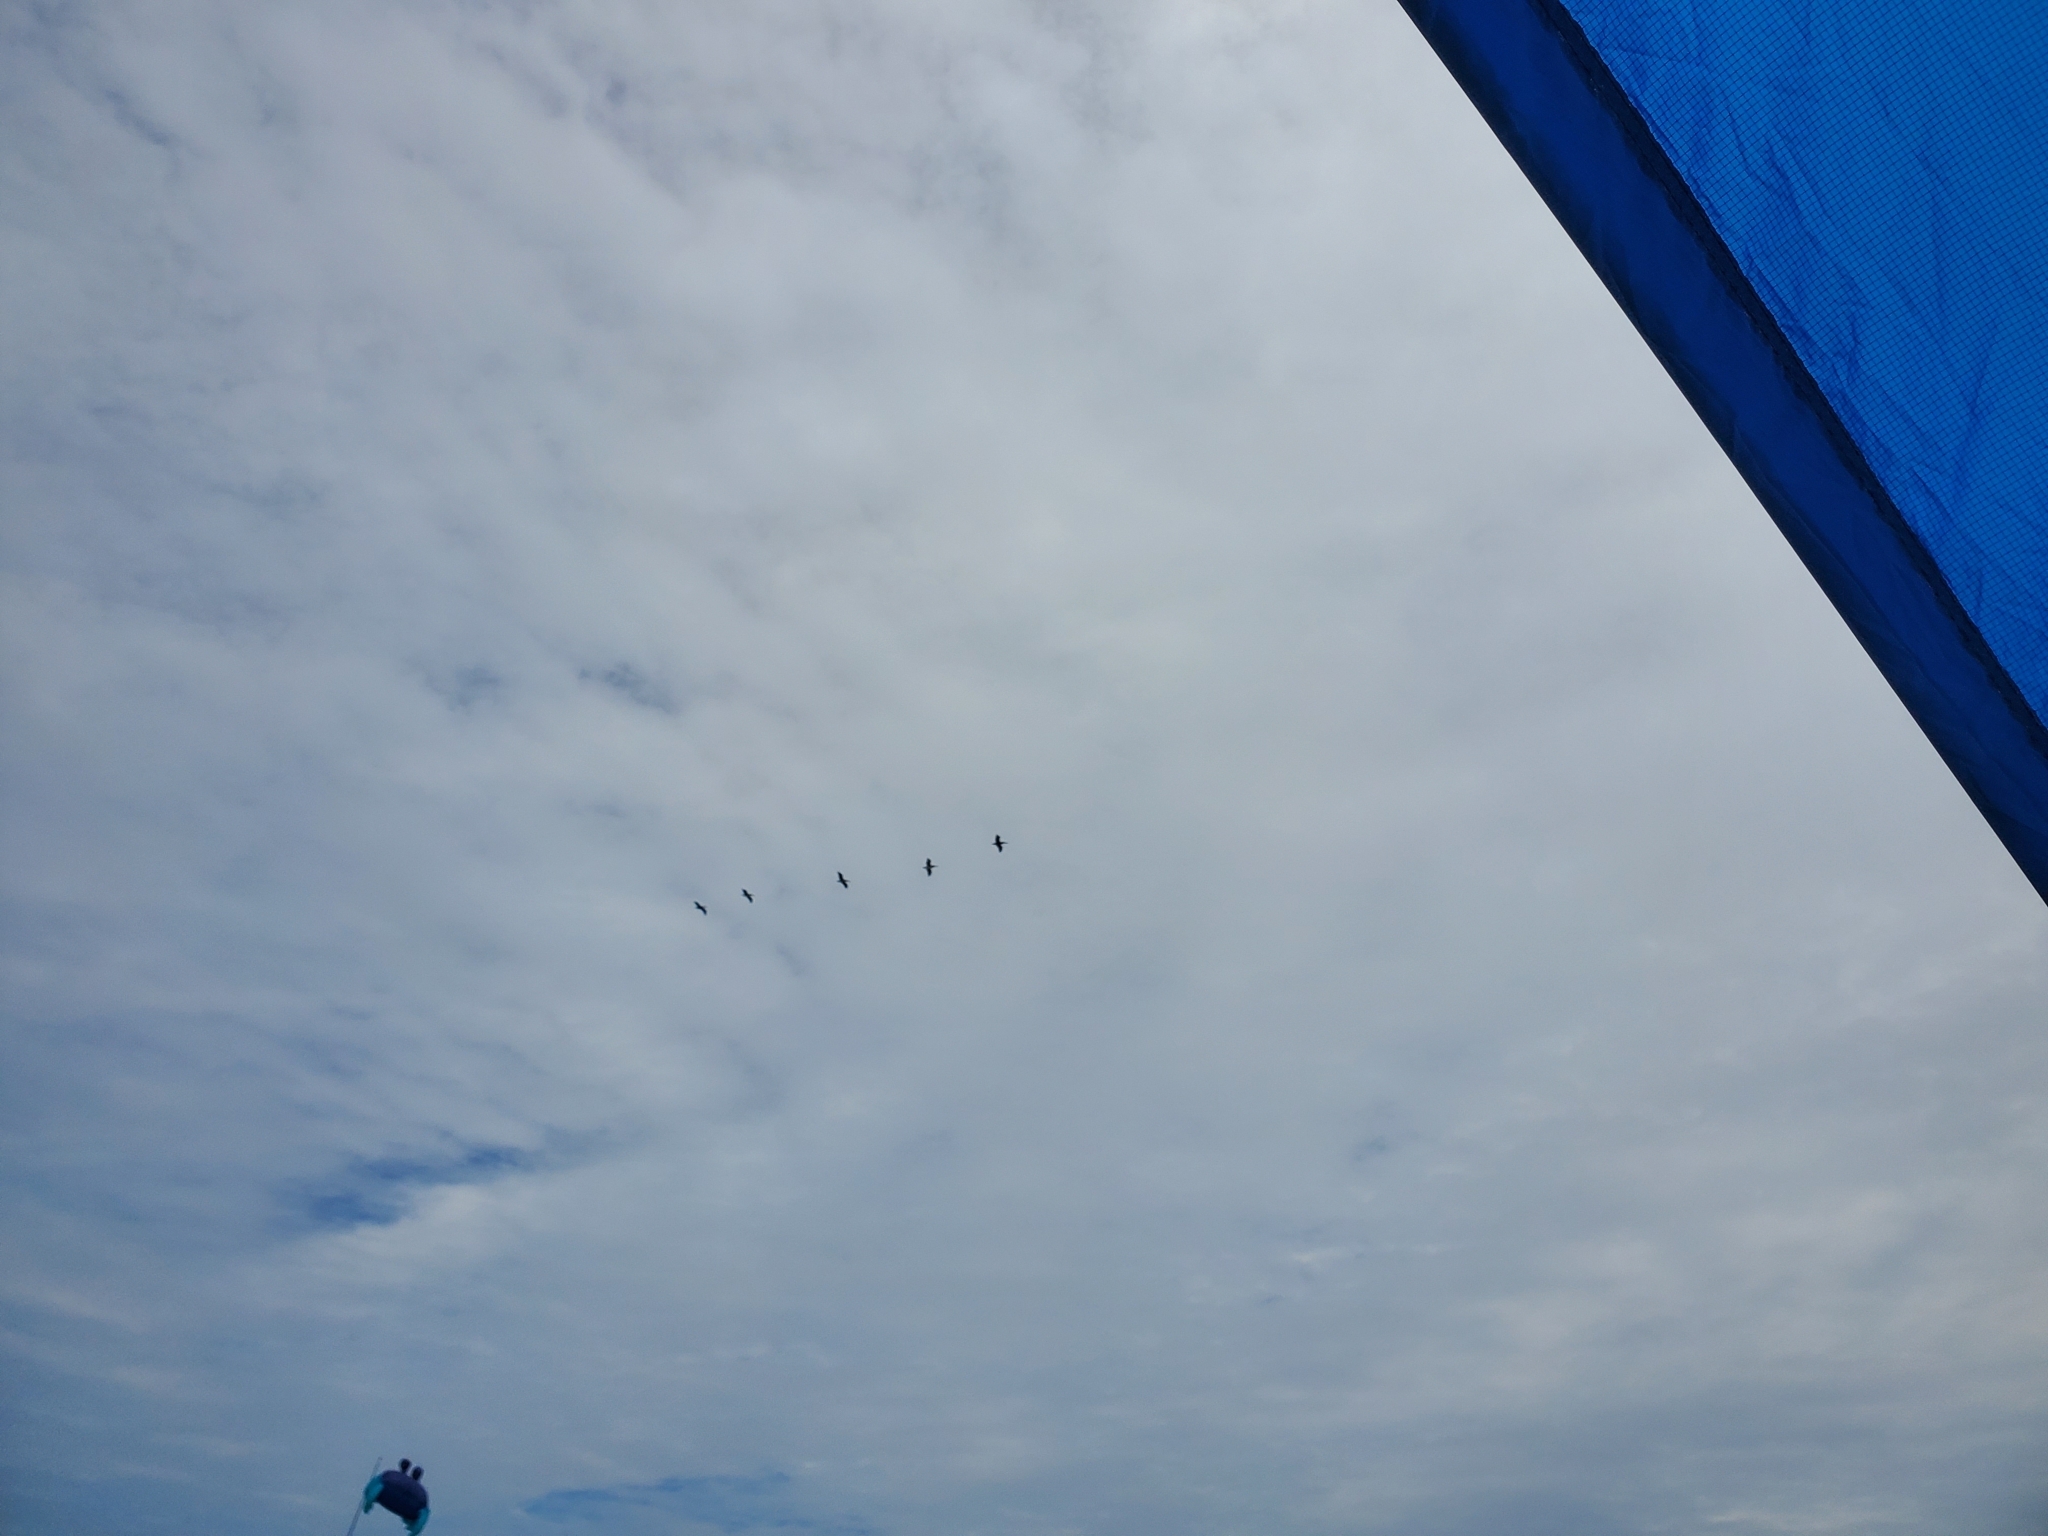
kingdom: Animalia
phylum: Chordata
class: Aves
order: Pelecaniformes
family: Pelecanidae
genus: Pelecanus
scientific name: Pelecanus occidentalis
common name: Brown pelican
